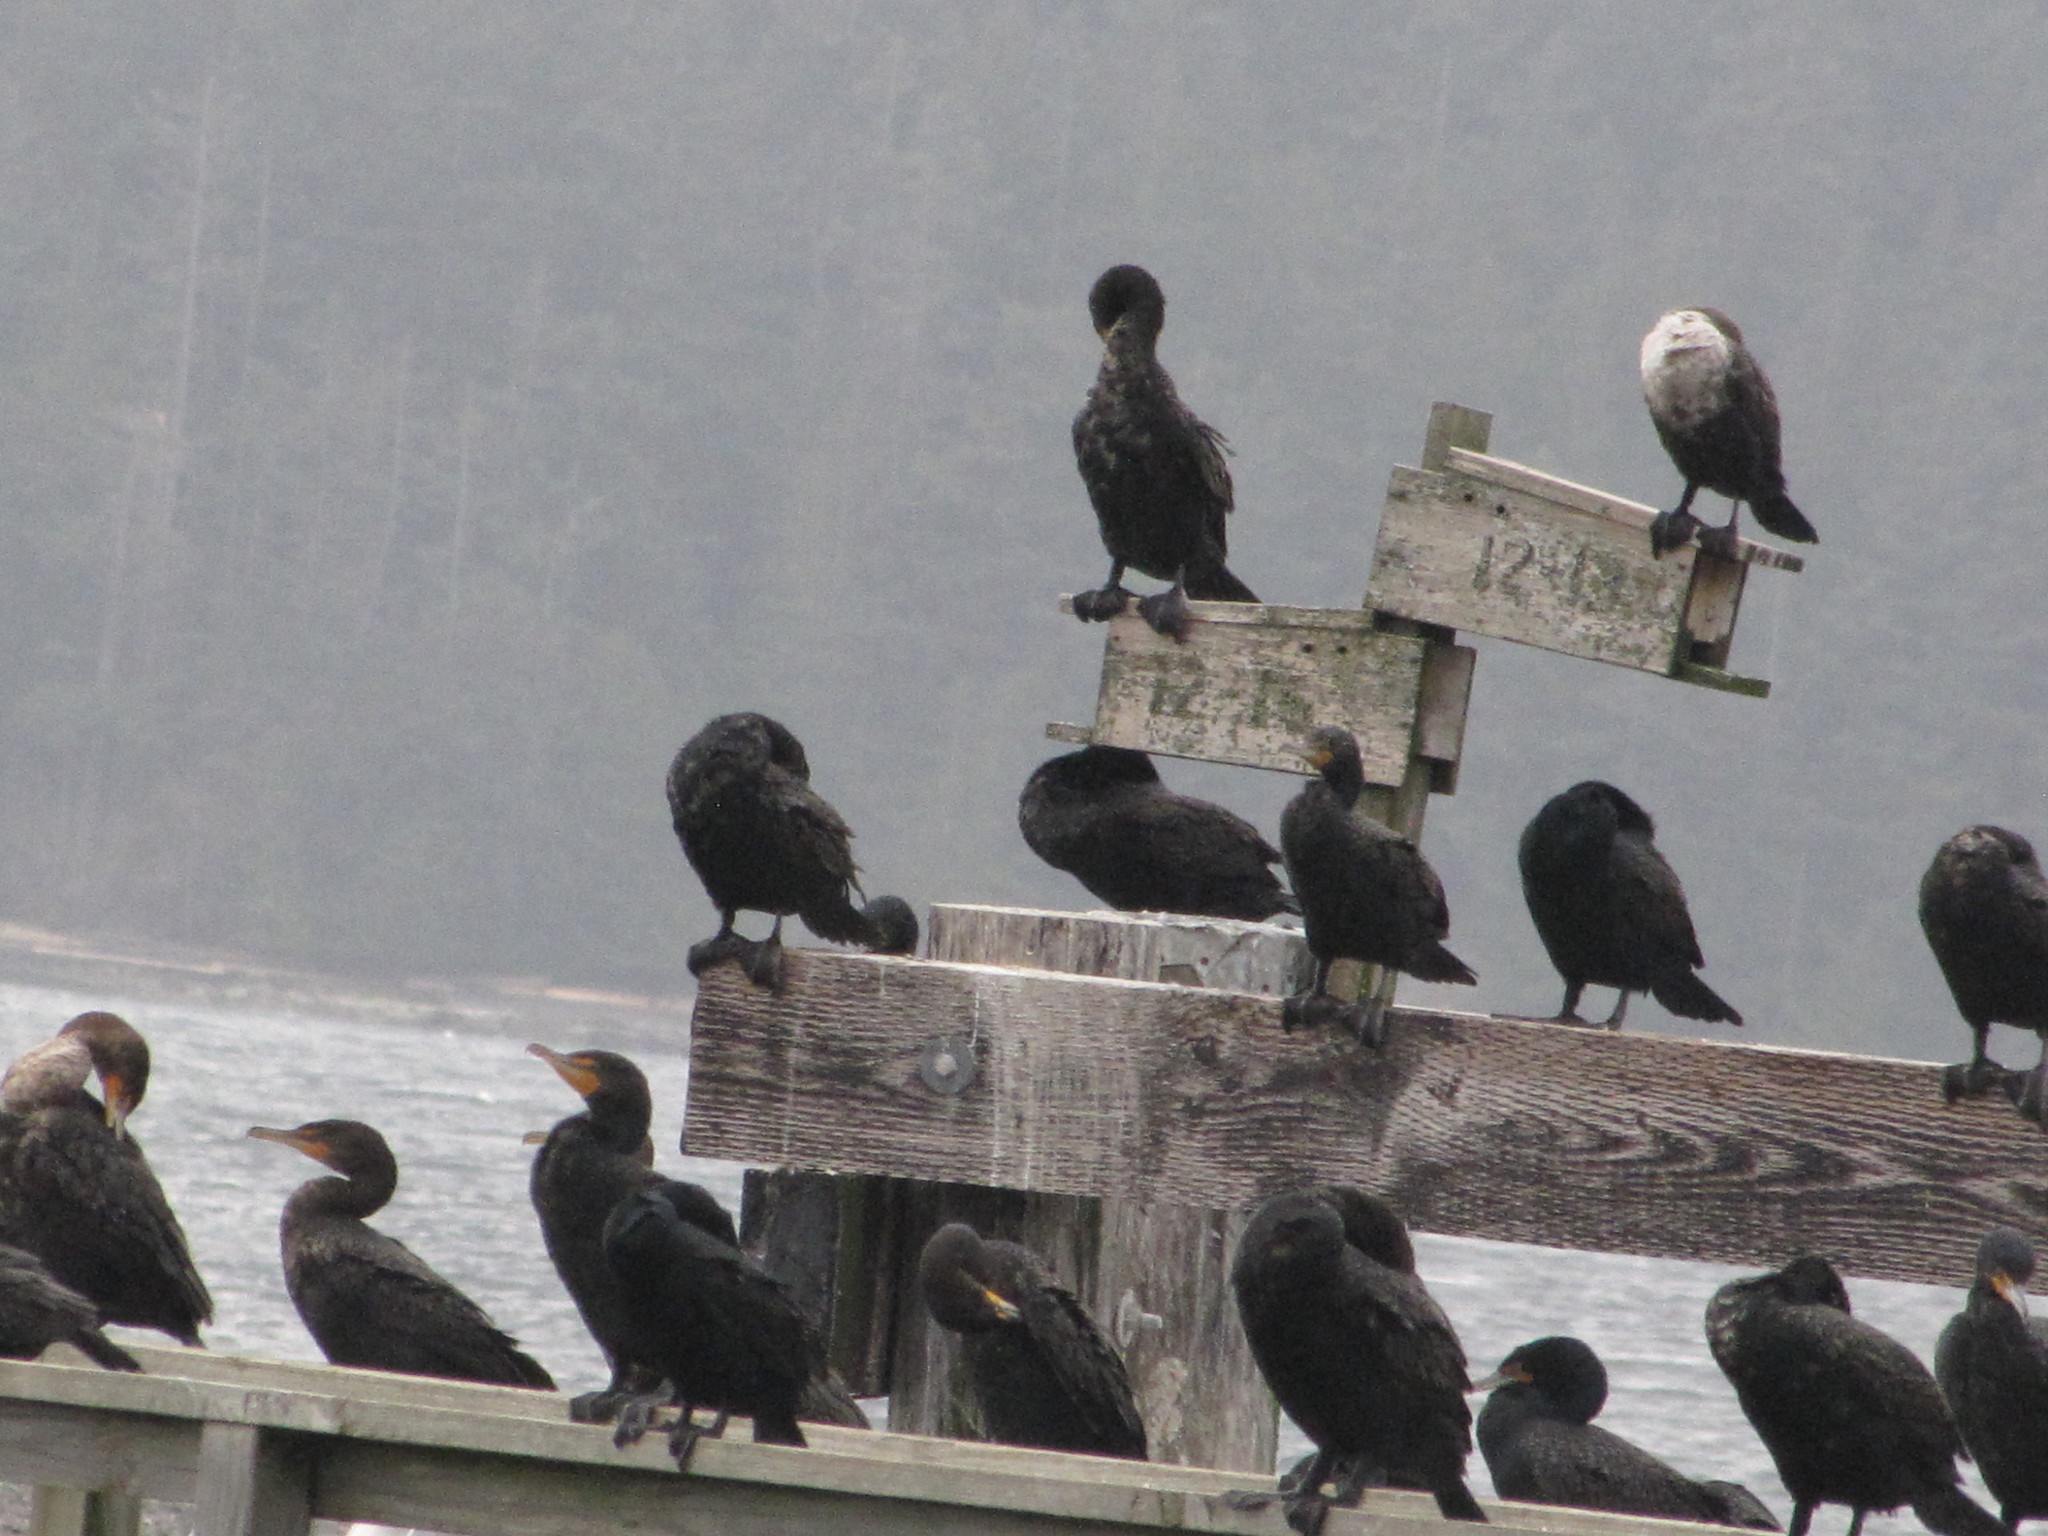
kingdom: Animalia
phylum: Chordata
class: Aves
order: Suliformes
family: Phalacrocoracidae
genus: Phalacrocorax
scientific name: Phalacrocorax auritus
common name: Double-crested cormorant
